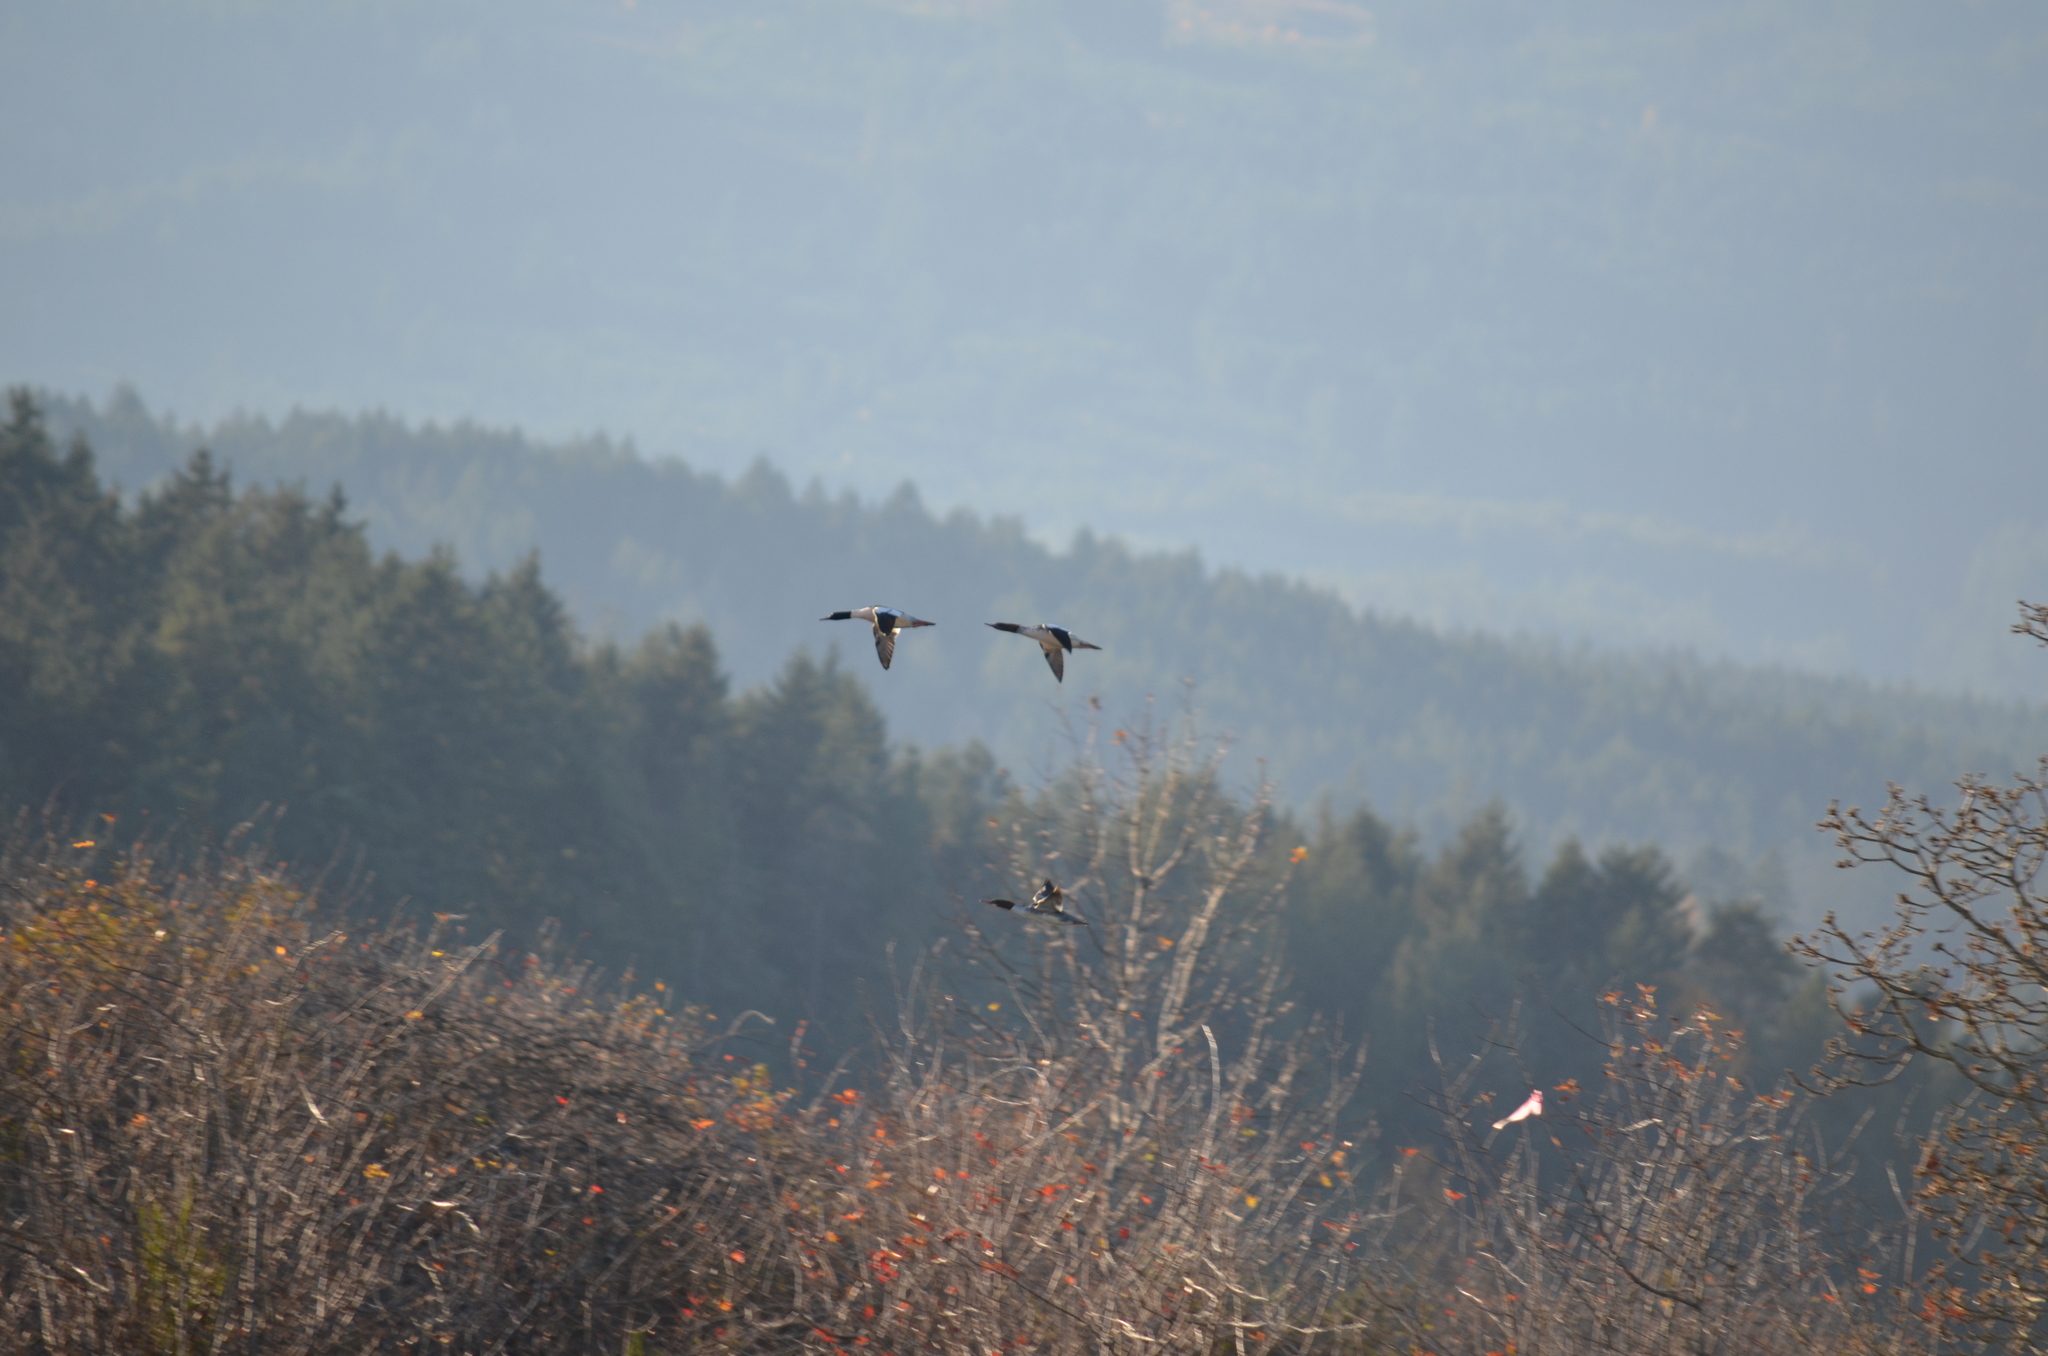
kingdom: Animalia
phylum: Chordata
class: Aves
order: Anseriformes
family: Anatidae
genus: Mergus
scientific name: Mergus merganser
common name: Common merganser
